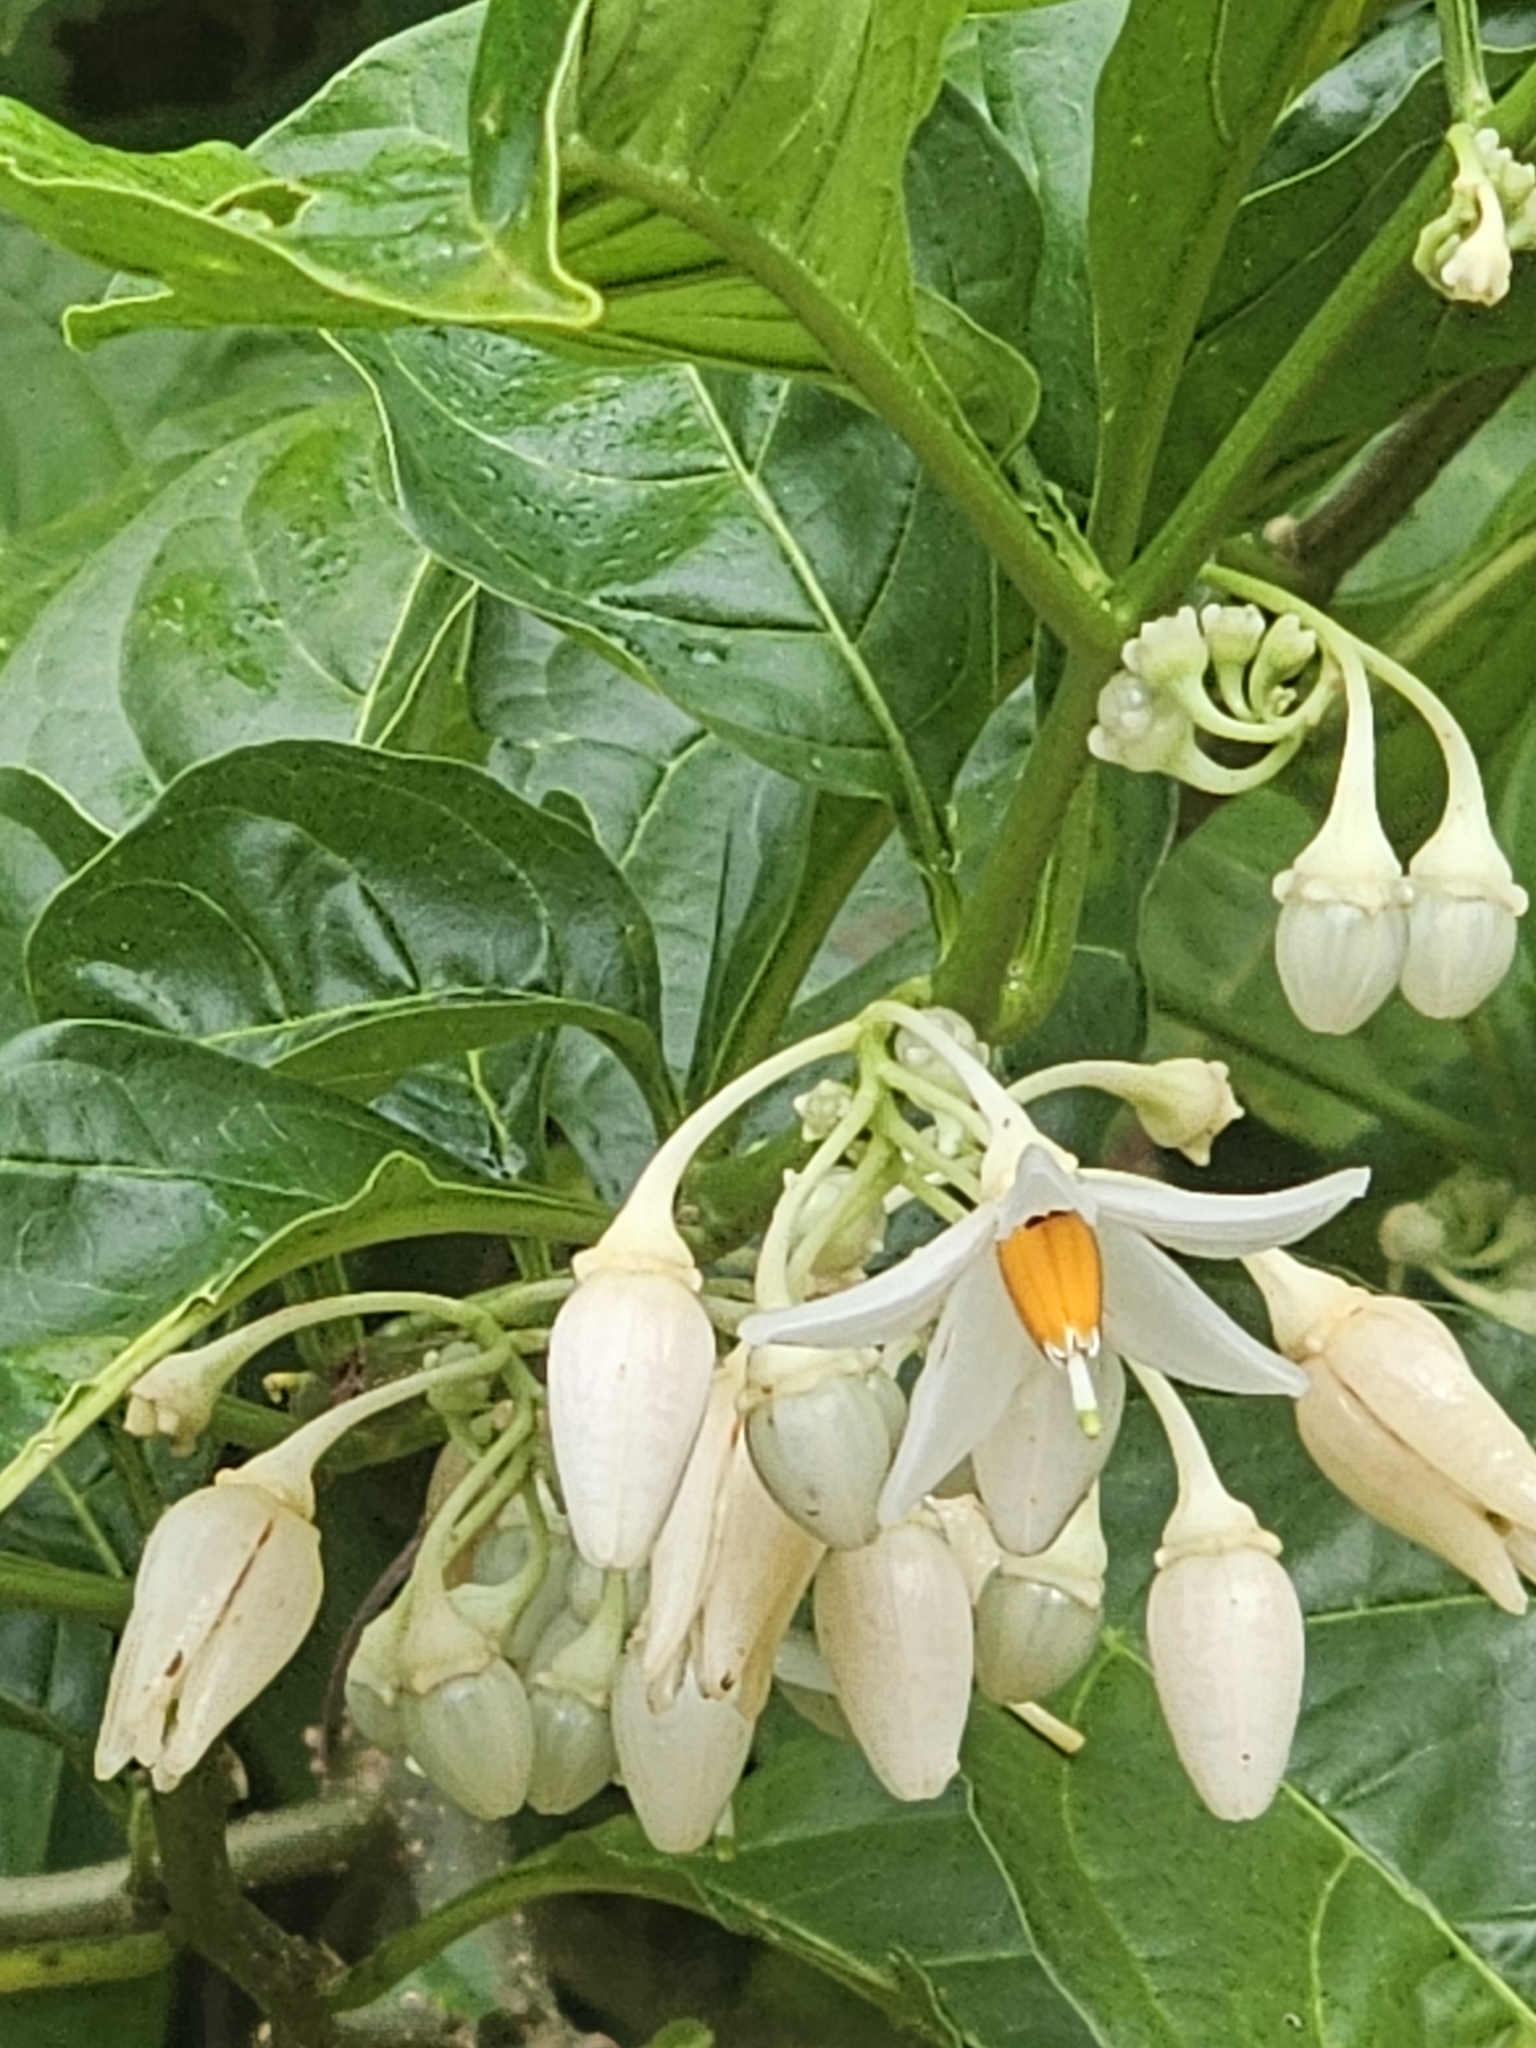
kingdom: Plantae
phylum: Tracheophyta
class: Magnoliopsida
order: Solanales
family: Solanaceae
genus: Solanum
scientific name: Solanum leucocarpon
